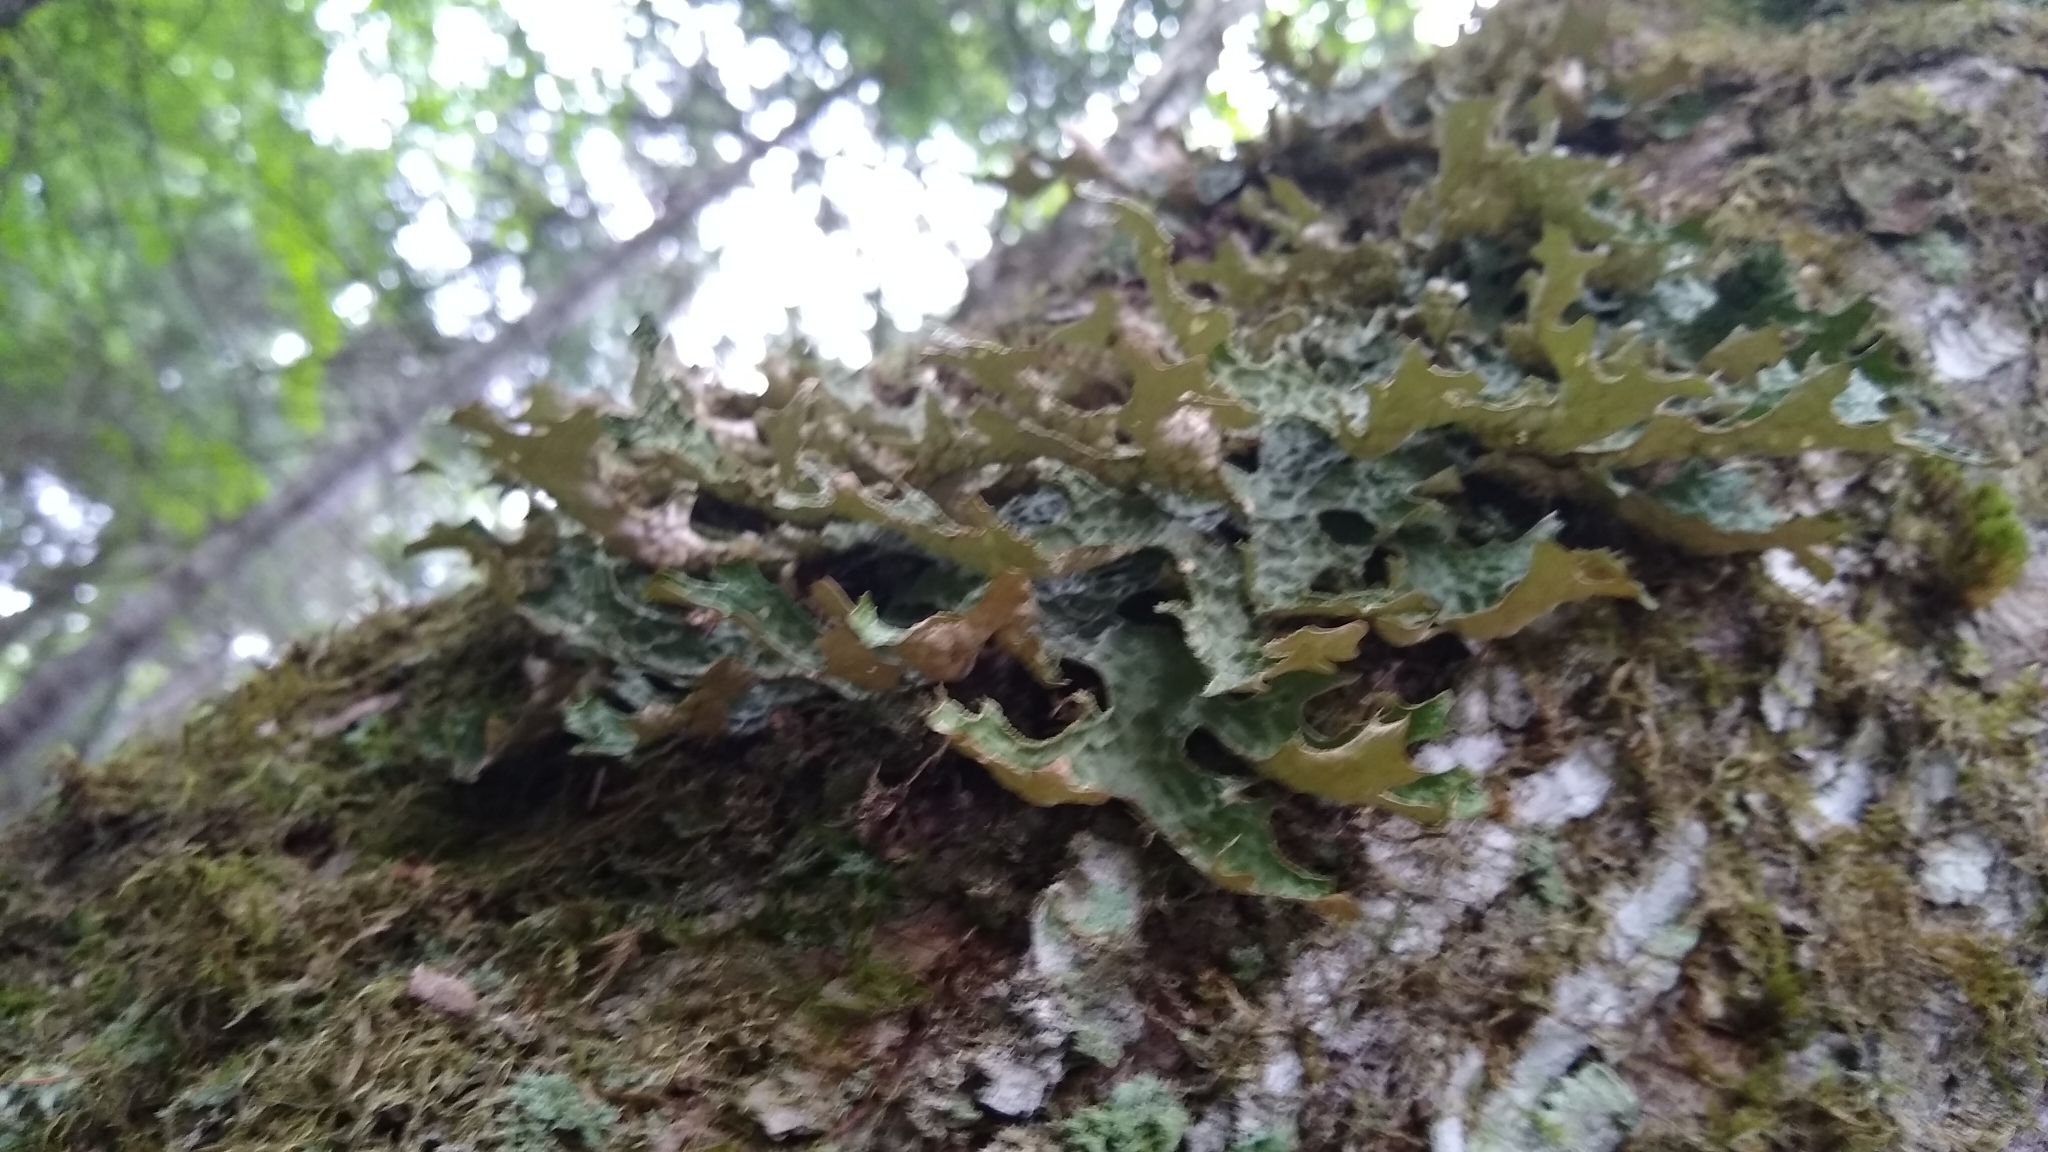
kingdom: Fungi
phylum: Ascomycota
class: Lecanoromycetes
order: Peltigerales
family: Lobariaceae
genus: Lobaria
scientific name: Lobaria pulmonaria
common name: Lungwort
